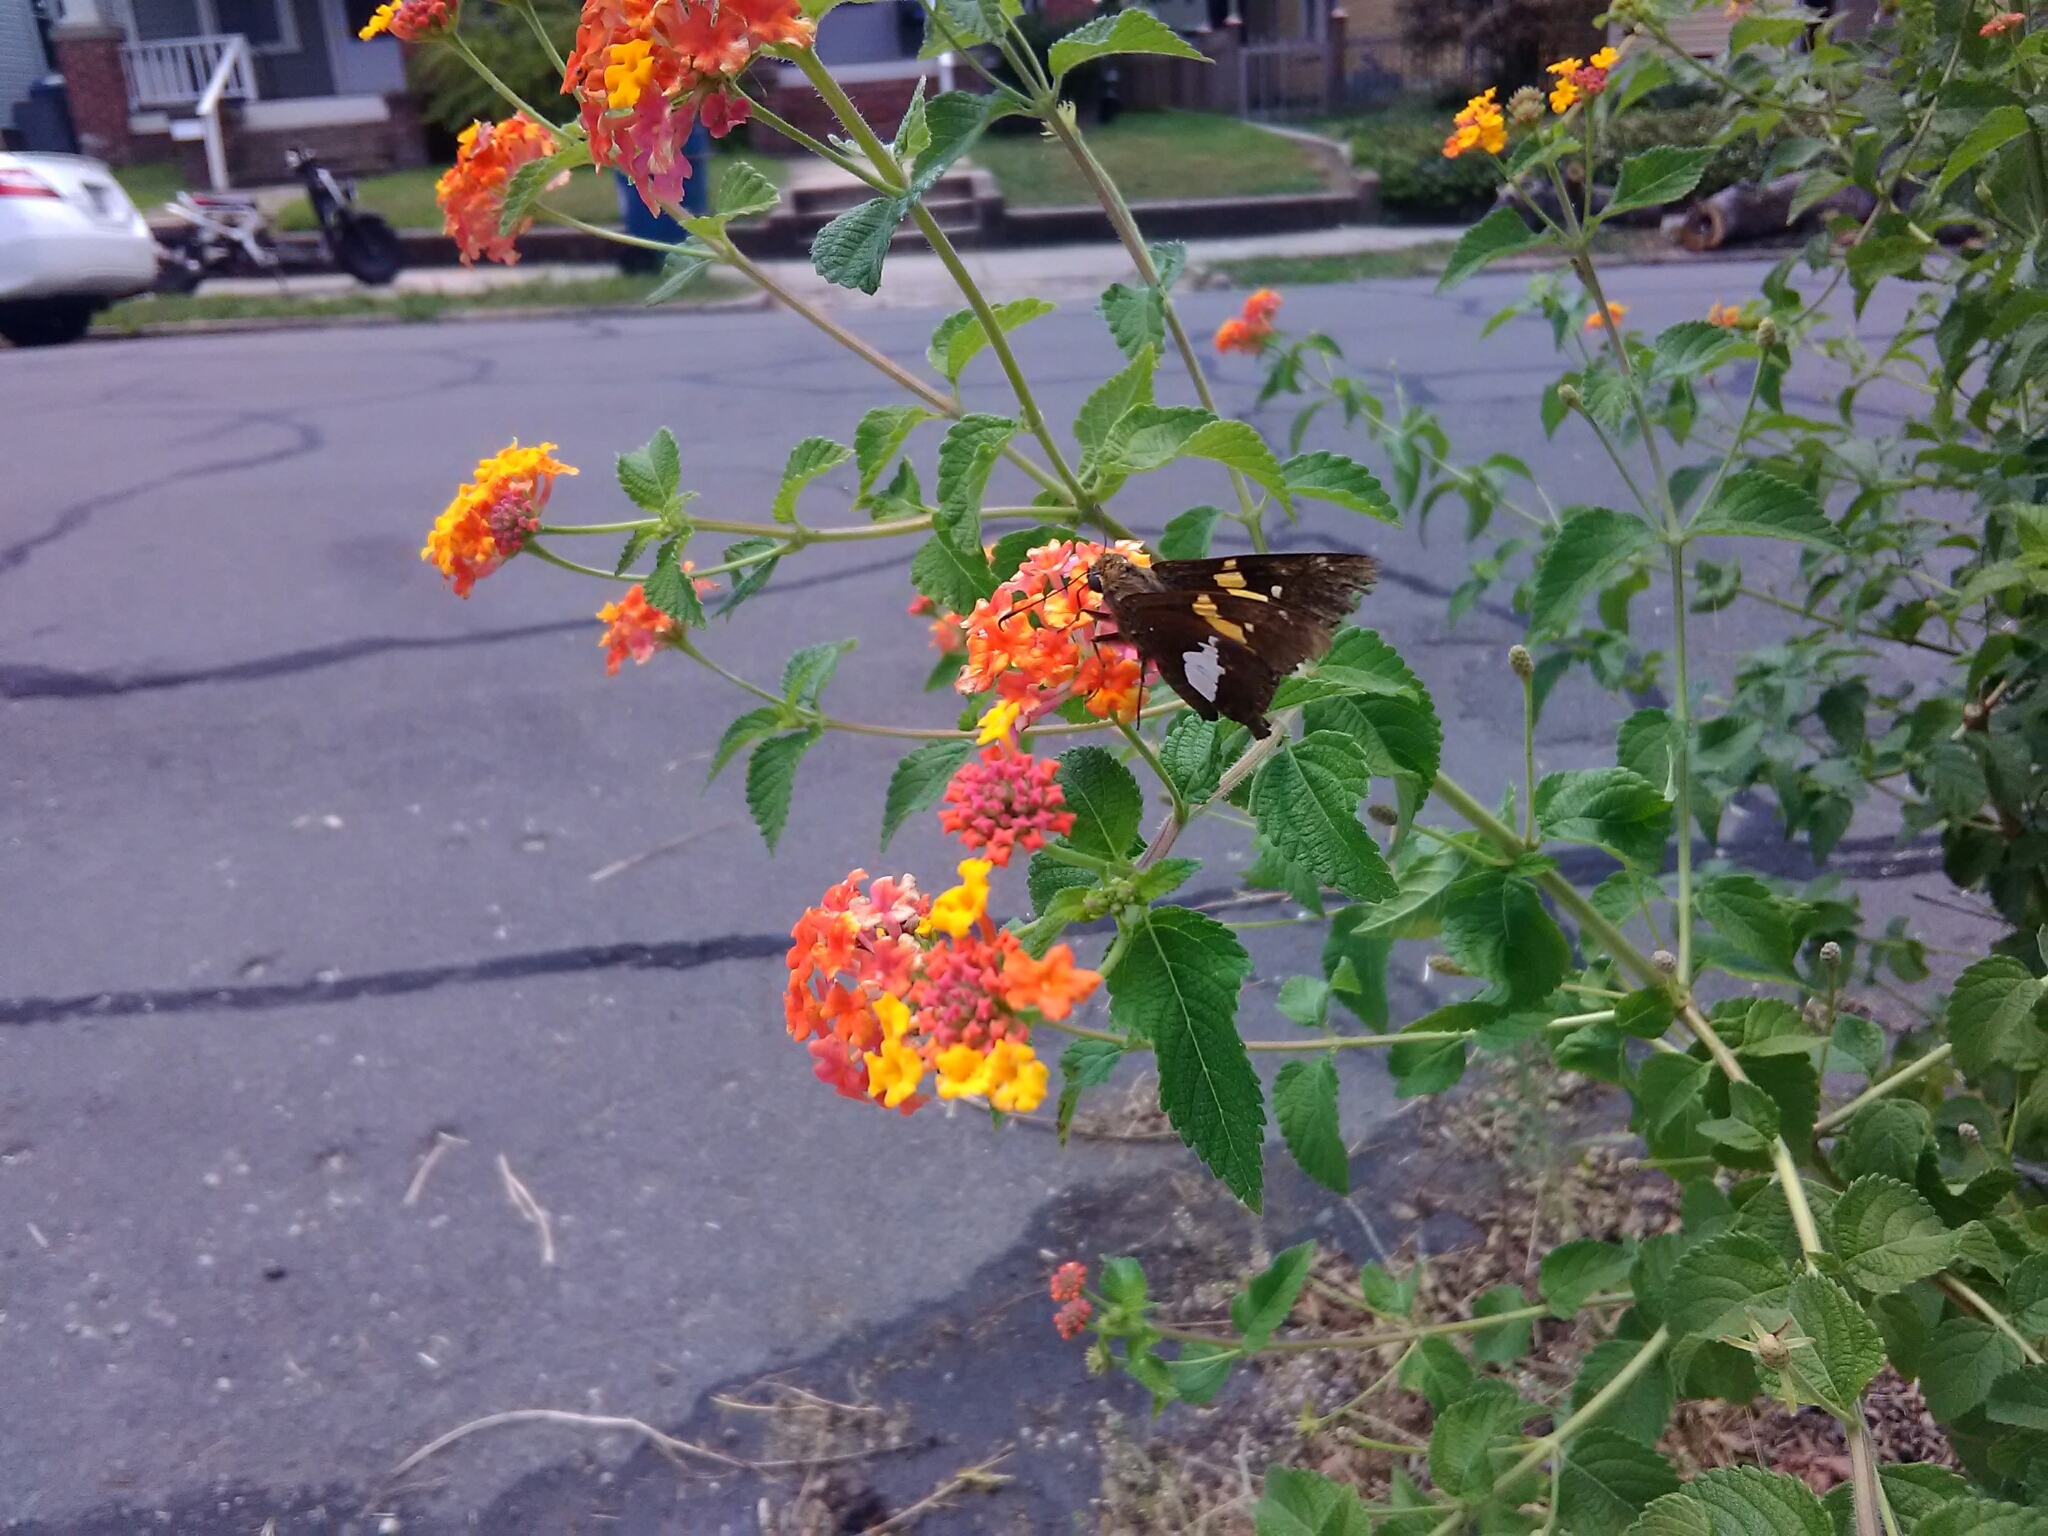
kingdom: Animalia
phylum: Arthropoda
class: Insecta
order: Lepidoptera
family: Hesperiidae
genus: Epargyreus
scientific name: Epargyreus clarus
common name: Silver-spotted skipper
